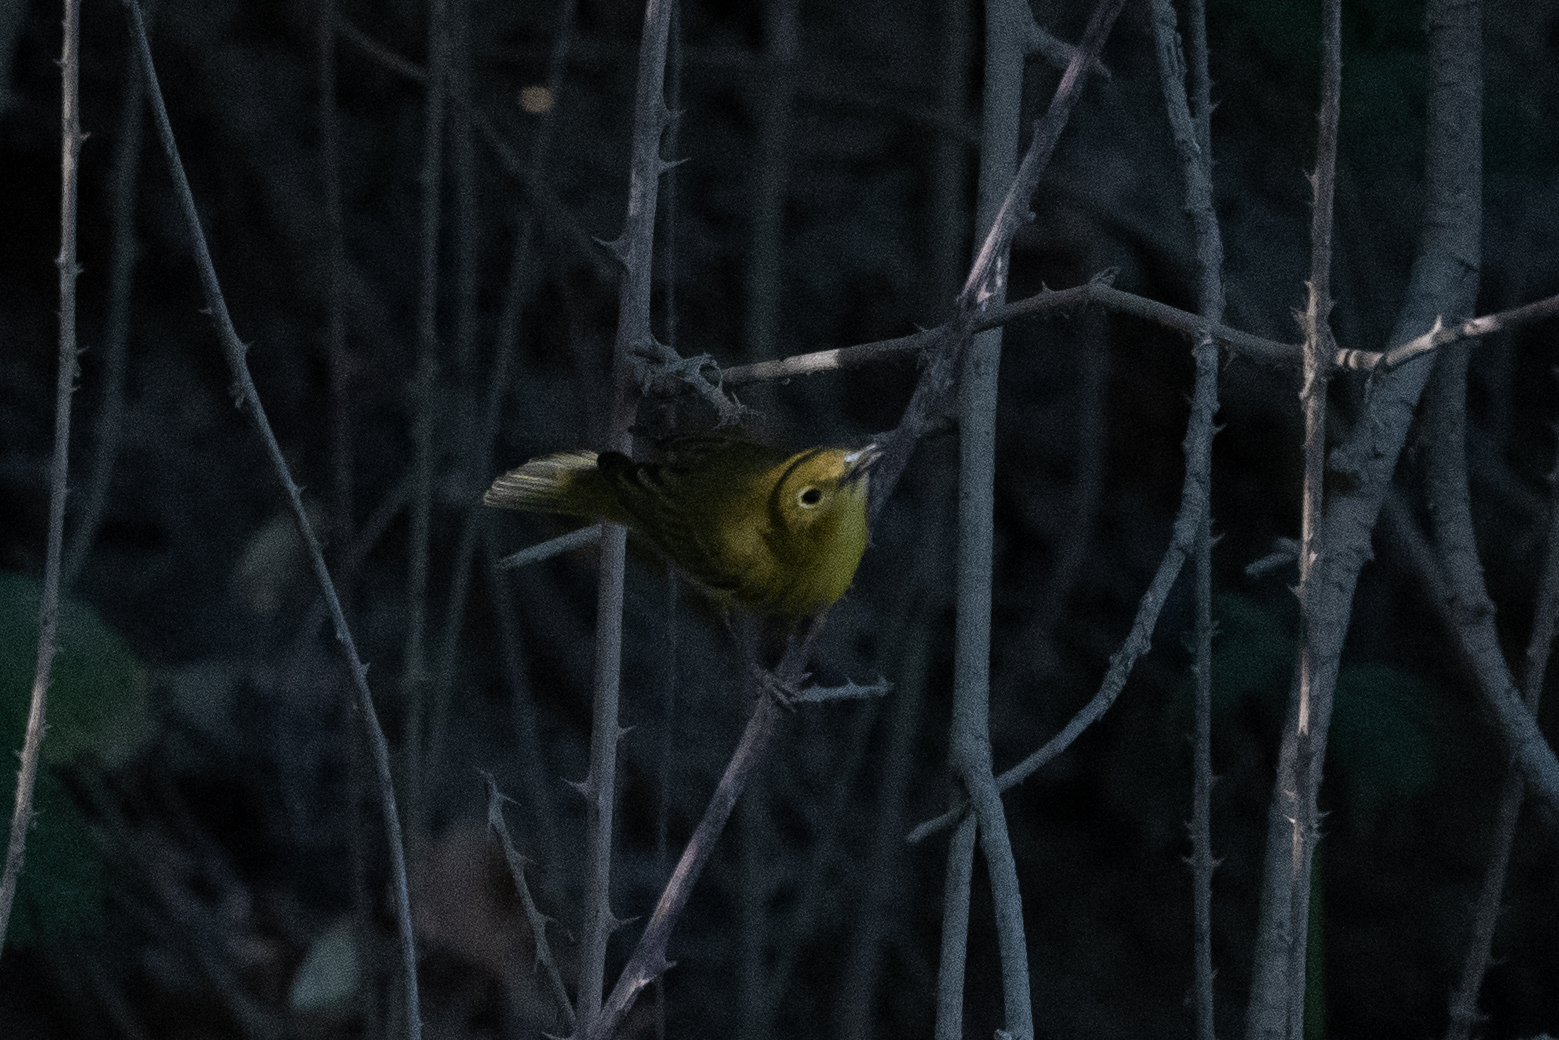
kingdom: Animalia
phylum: Chordata
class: Aves
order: Passeriformes
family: Parulidae
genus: Setophaga
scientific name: Setophaga petechia
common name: Yellow warbler
